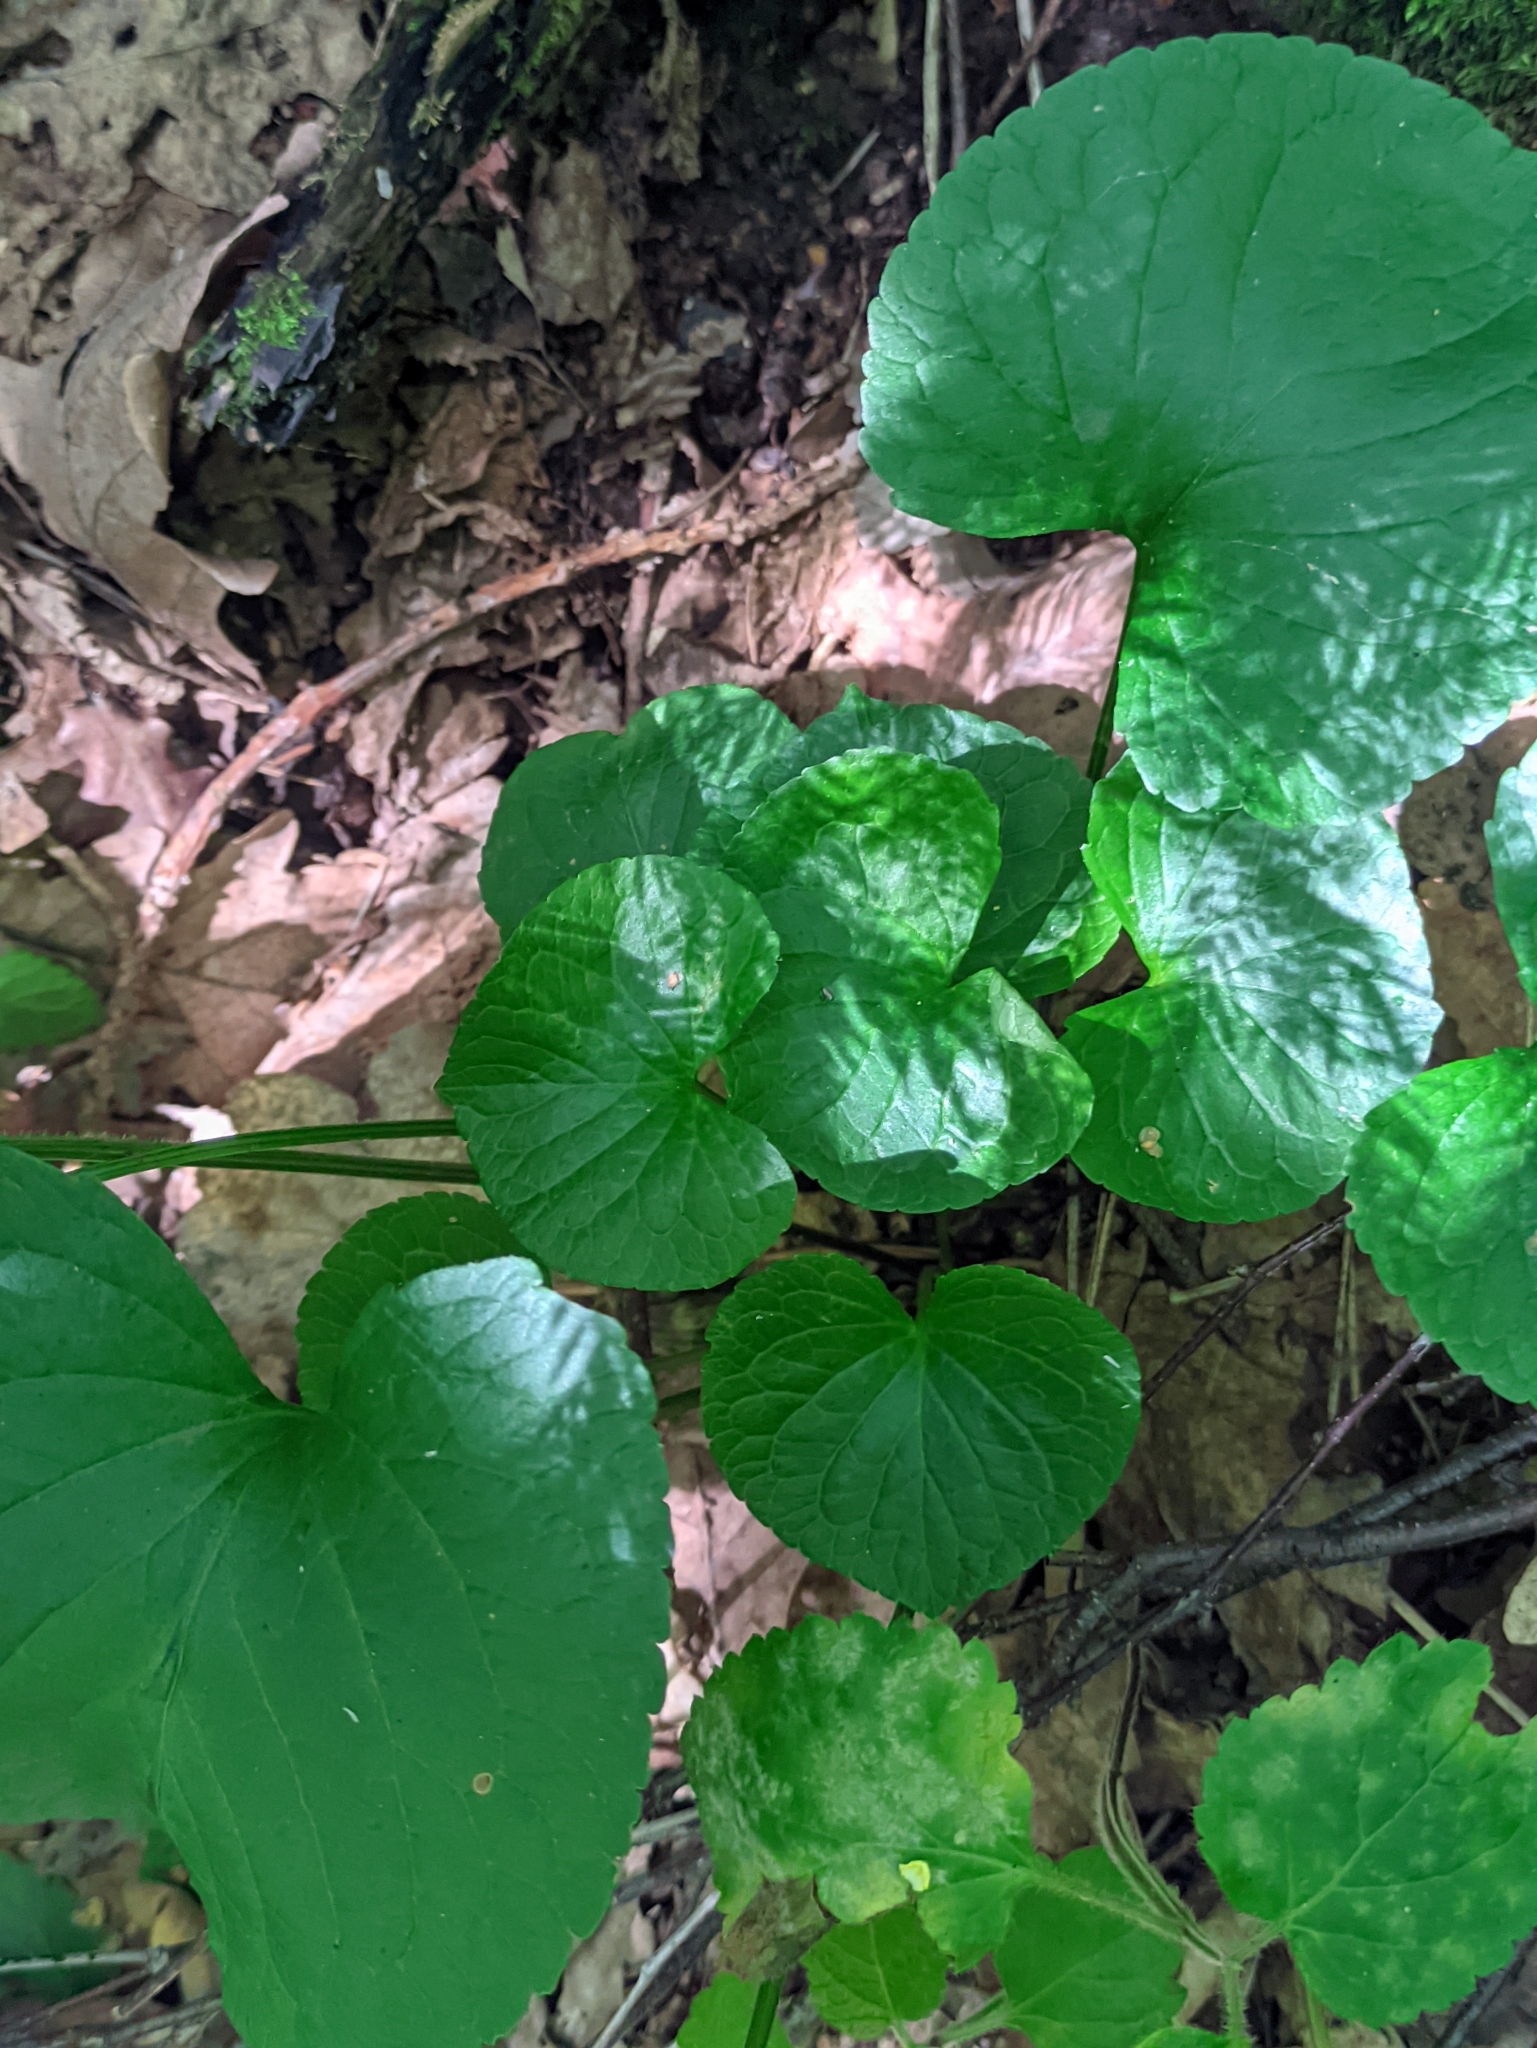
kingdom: Plantae
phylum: Tracheophyta
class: Magnoliopsida
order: Malpighiales
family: Violaceae
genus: Viola
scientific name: Viola mirabilis
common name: Wonder violet
